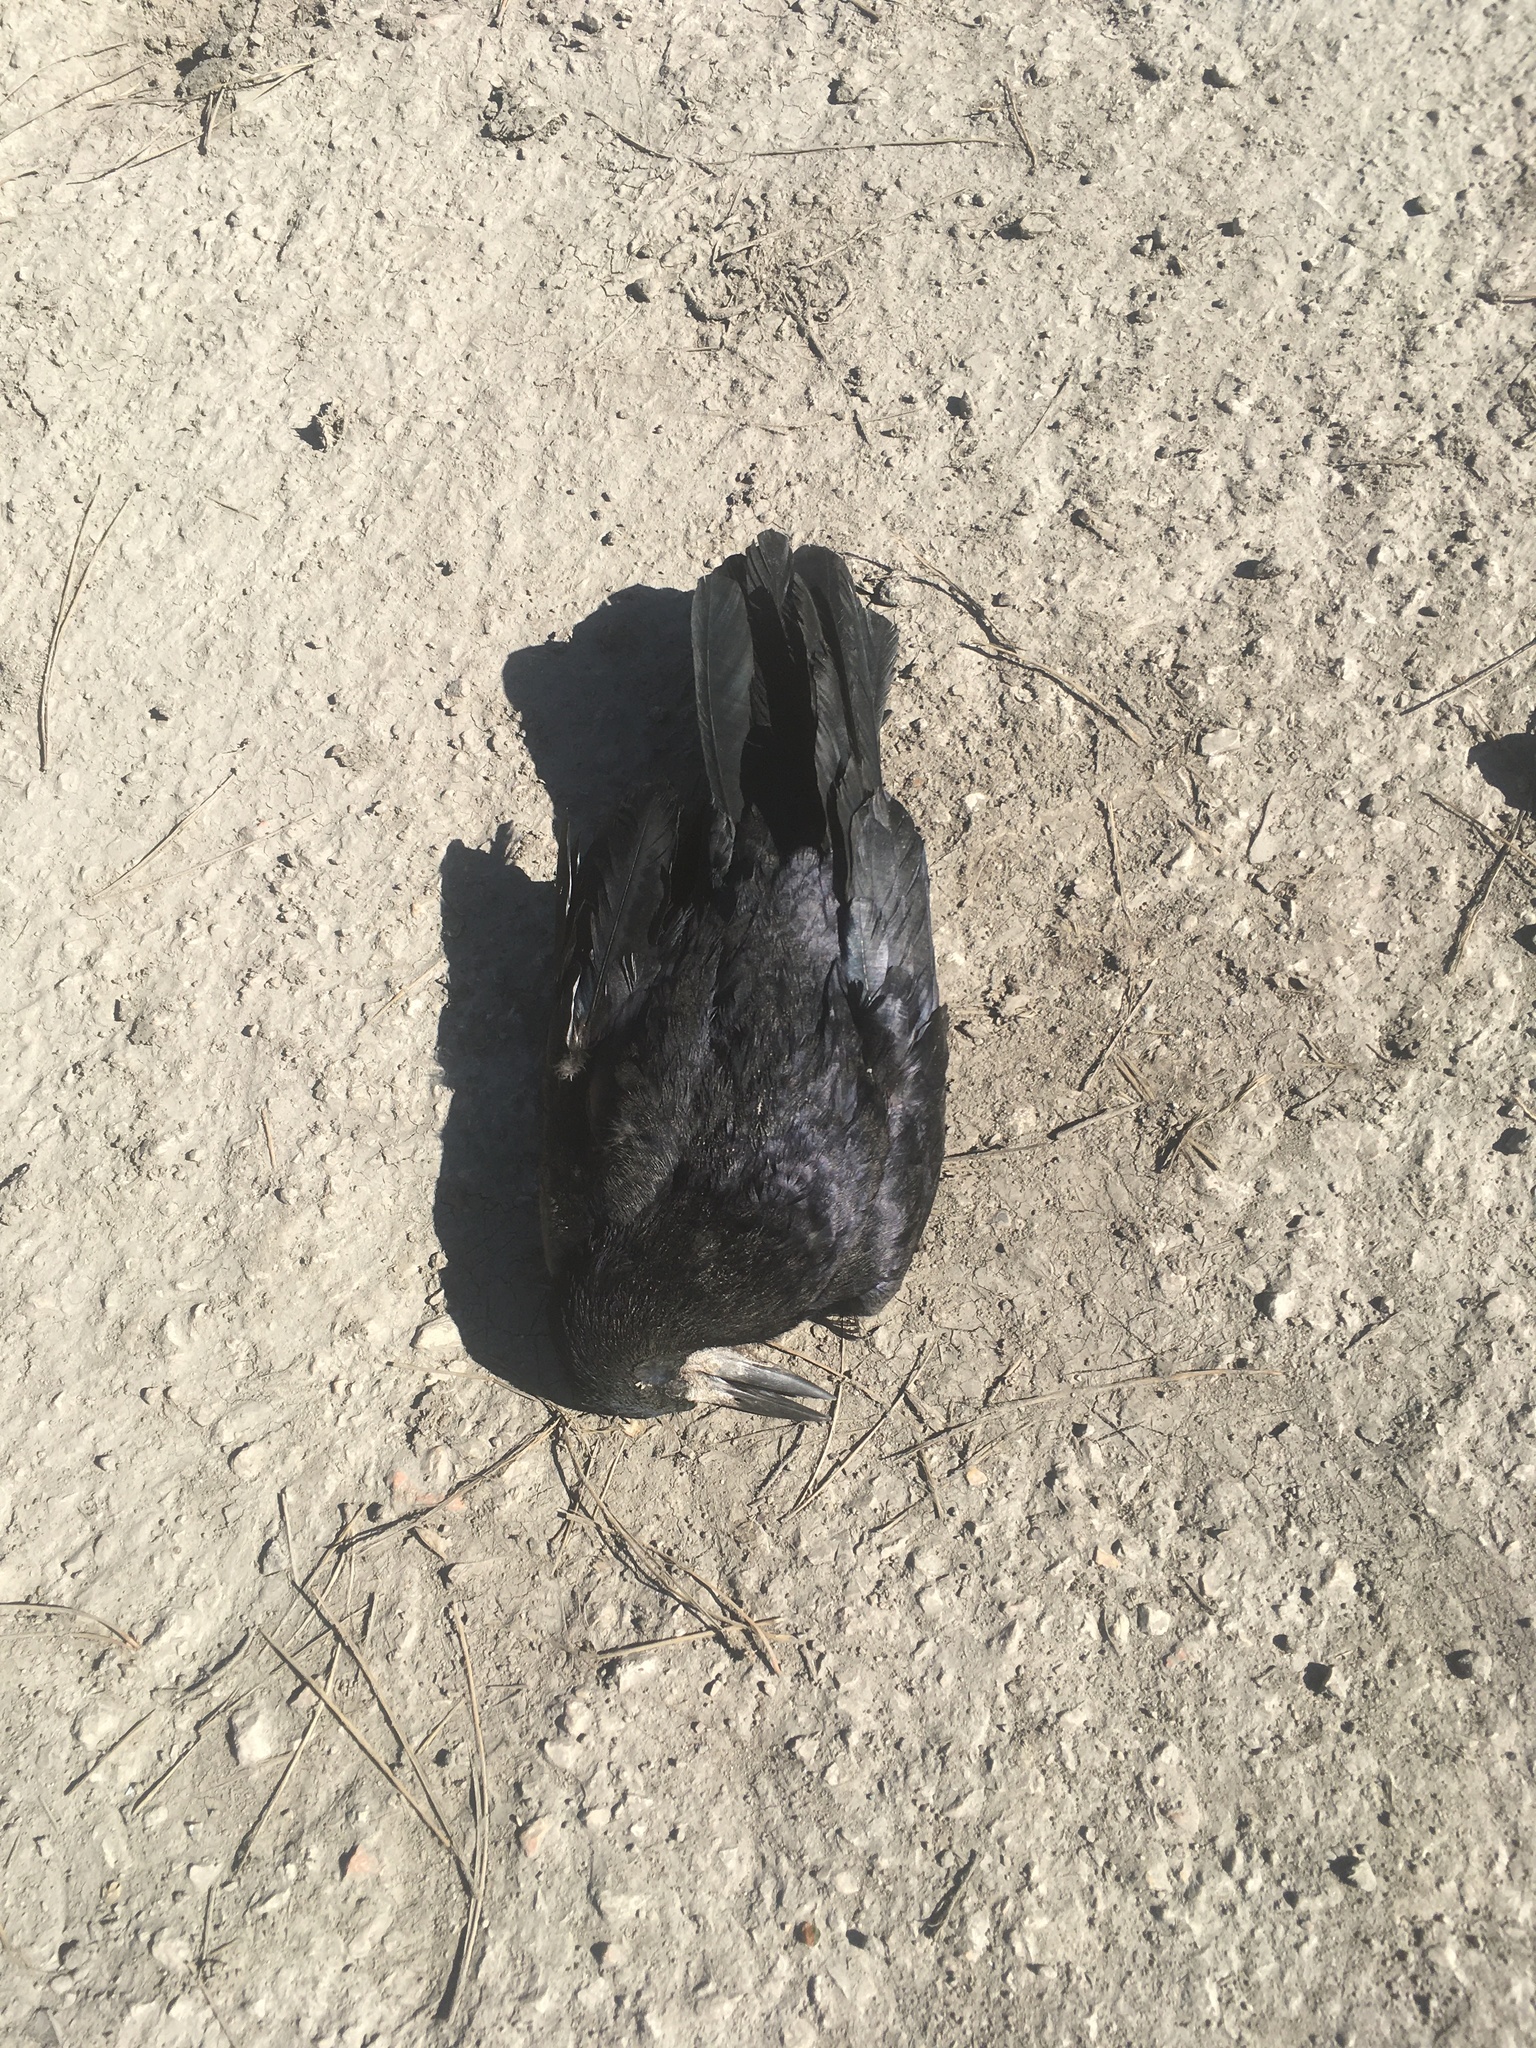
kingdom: Animalia
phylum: Chordata
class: Aves
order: Passeriformes
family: Corvidae
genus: Corvus
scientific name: Corvus frugilegus
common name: Rook
